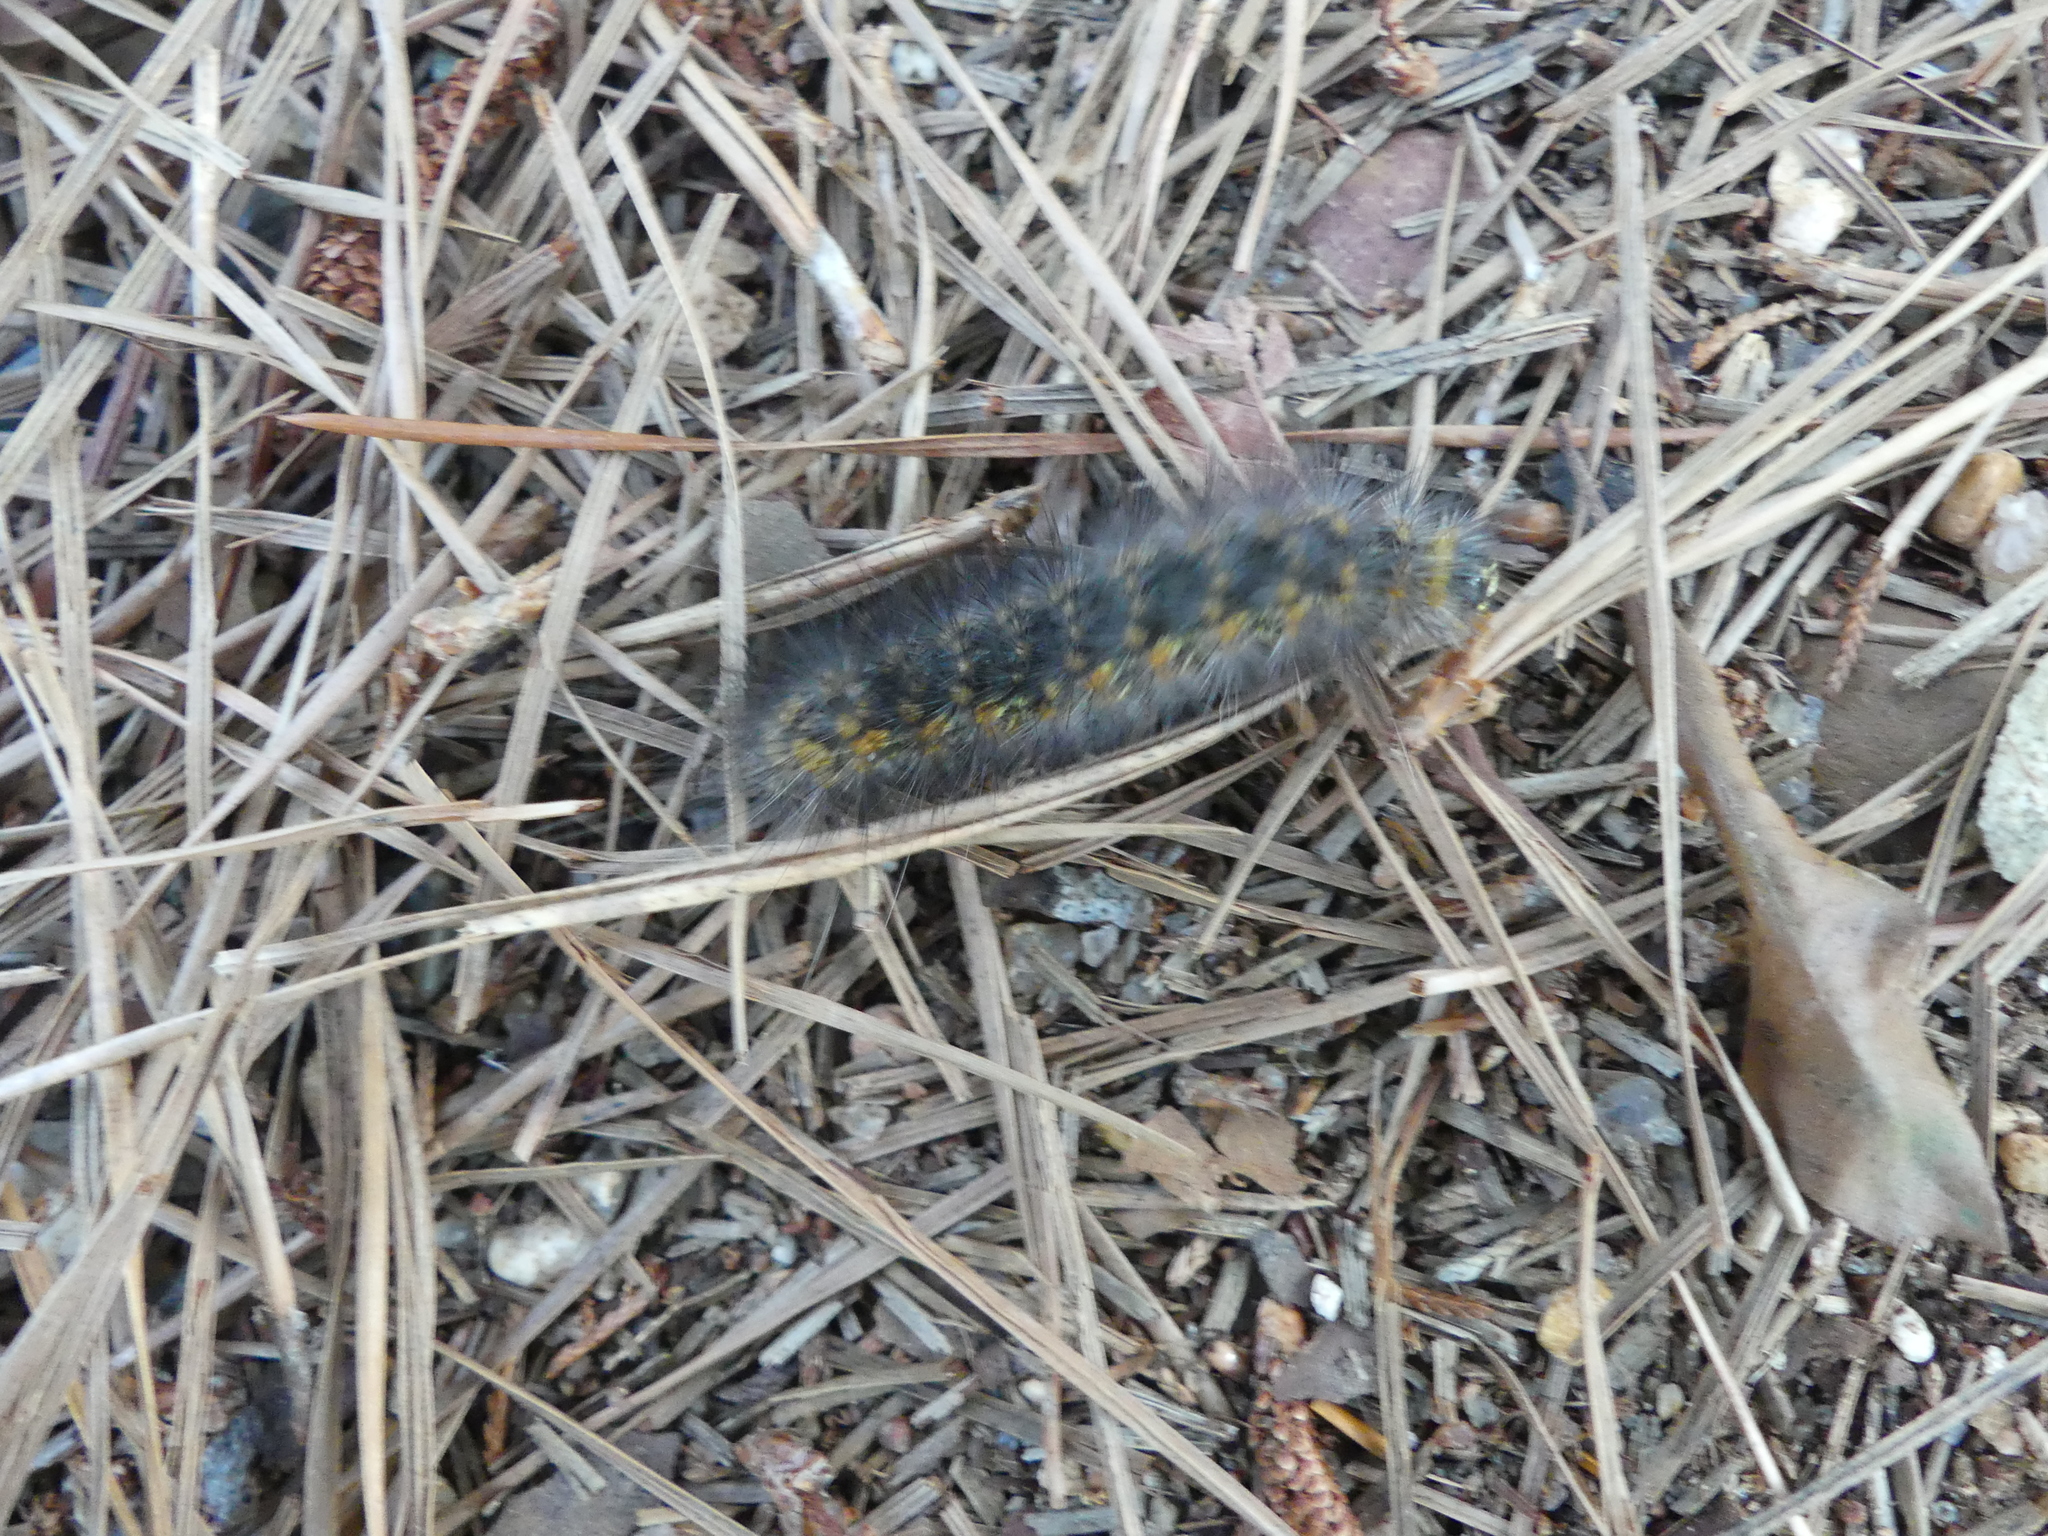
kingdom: Animalia
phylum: Arthropoda
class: Insecta
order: Lepidoptera
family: Erebidae
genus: Estigmene
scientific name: Estigmene acrea
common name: Salt marsh moth
